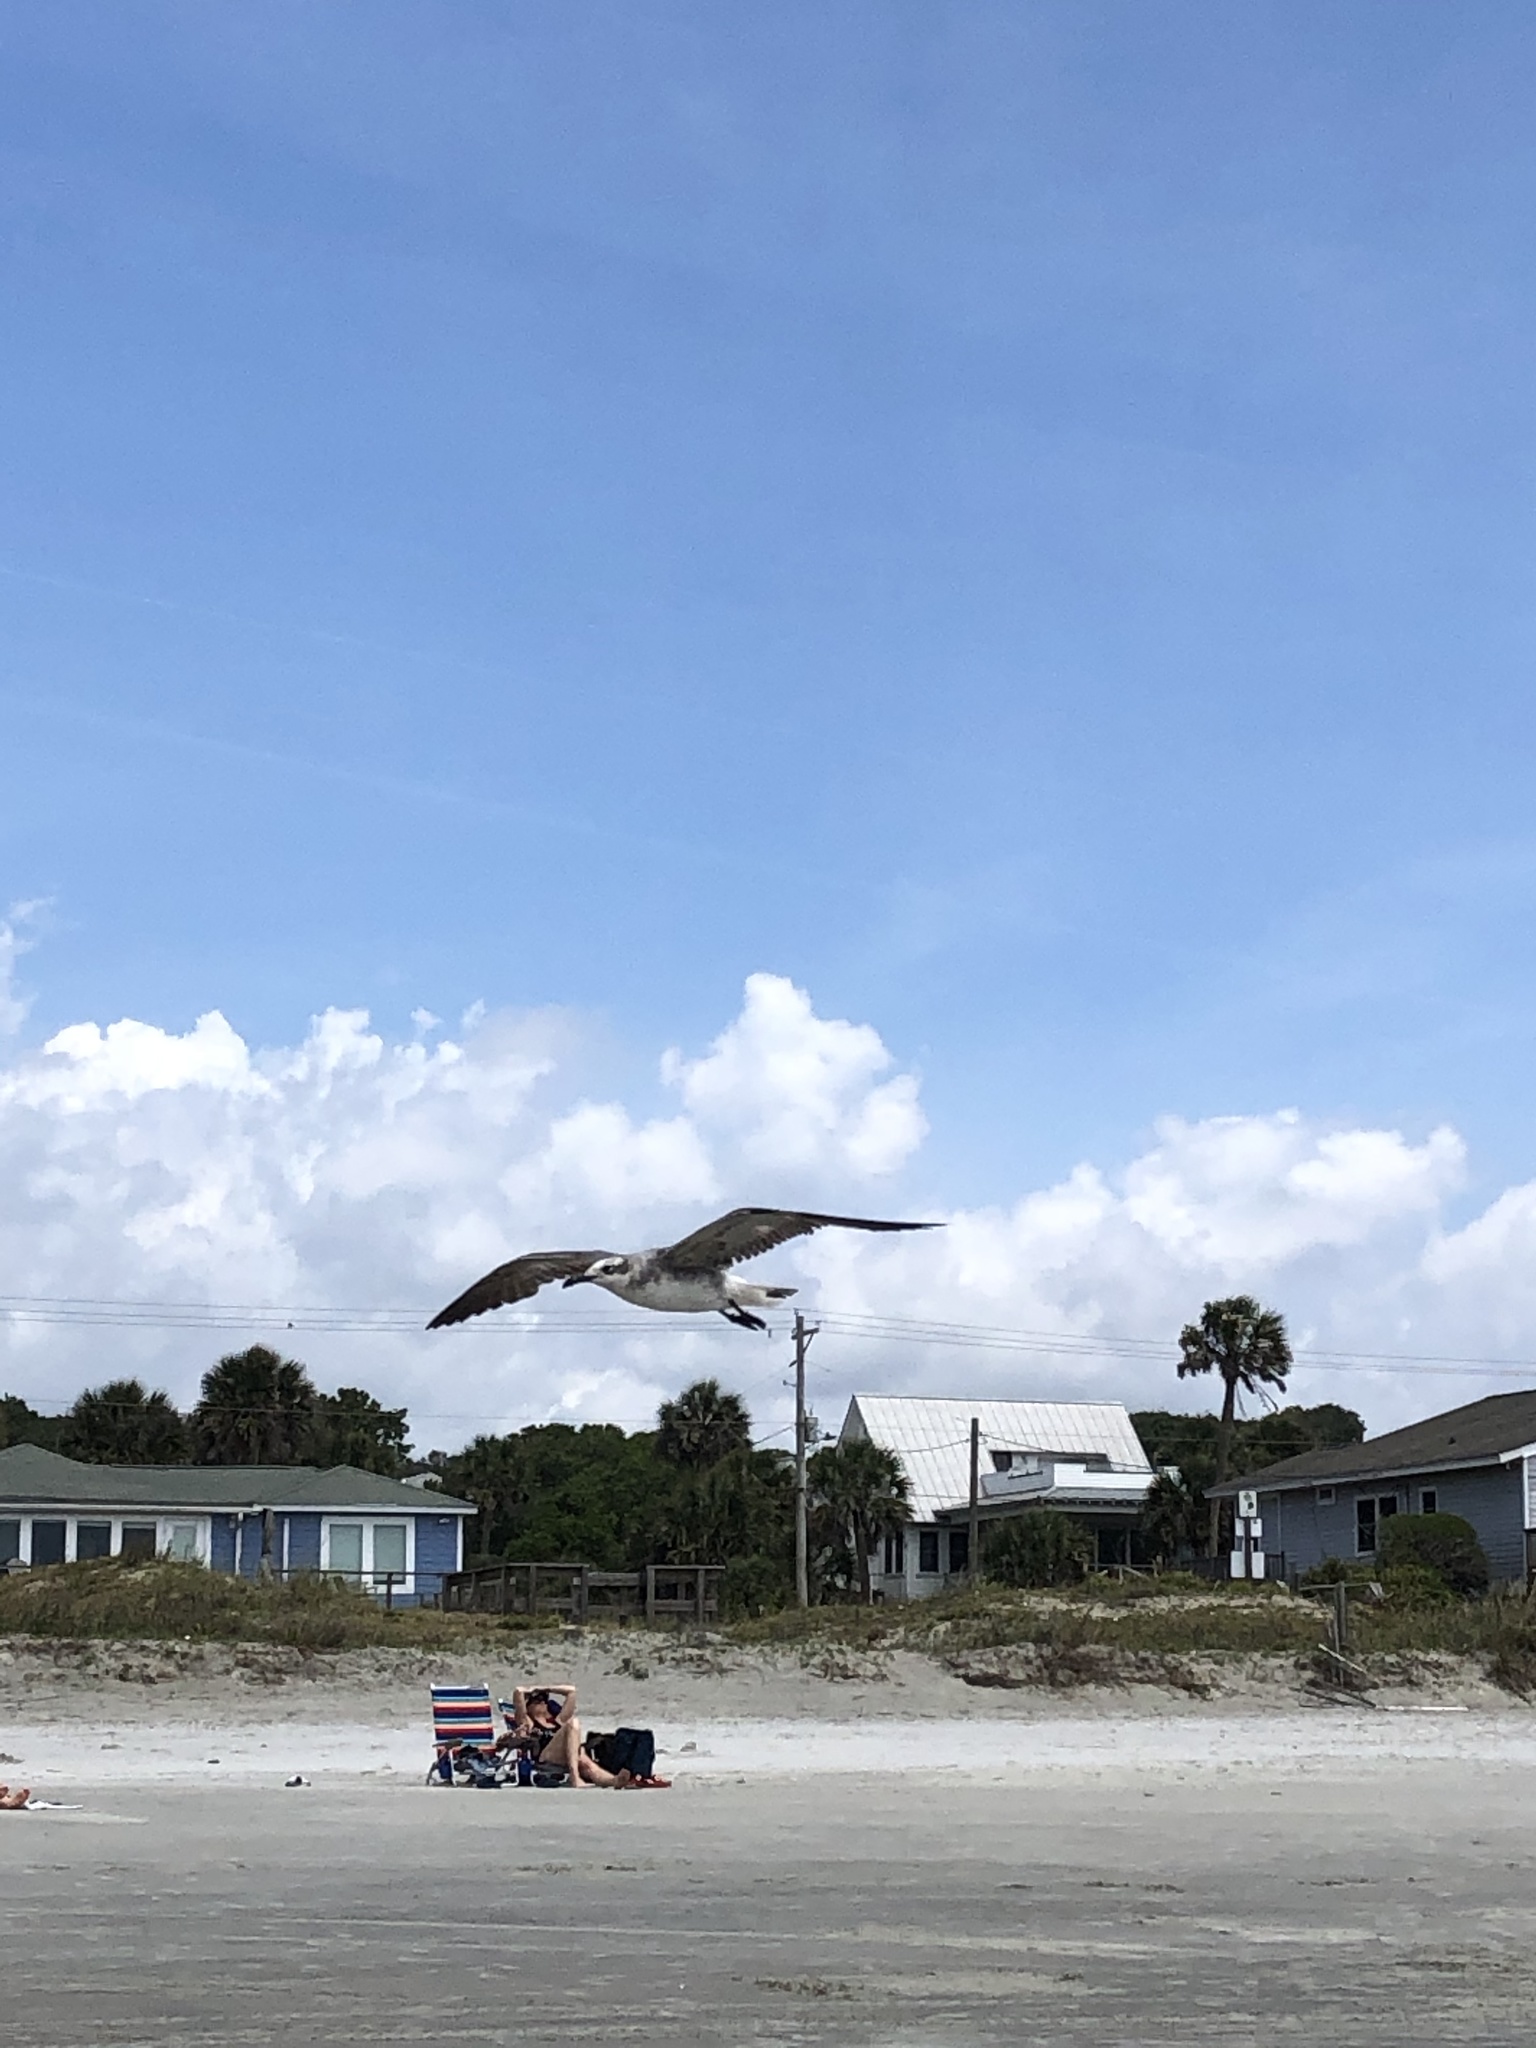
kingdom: Animalia
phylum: Chordata
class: Aves
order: Charadriiformes
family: Laridae
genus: Leucophaeus
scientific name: Leucophaeus atricilla
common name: Laughing gull
